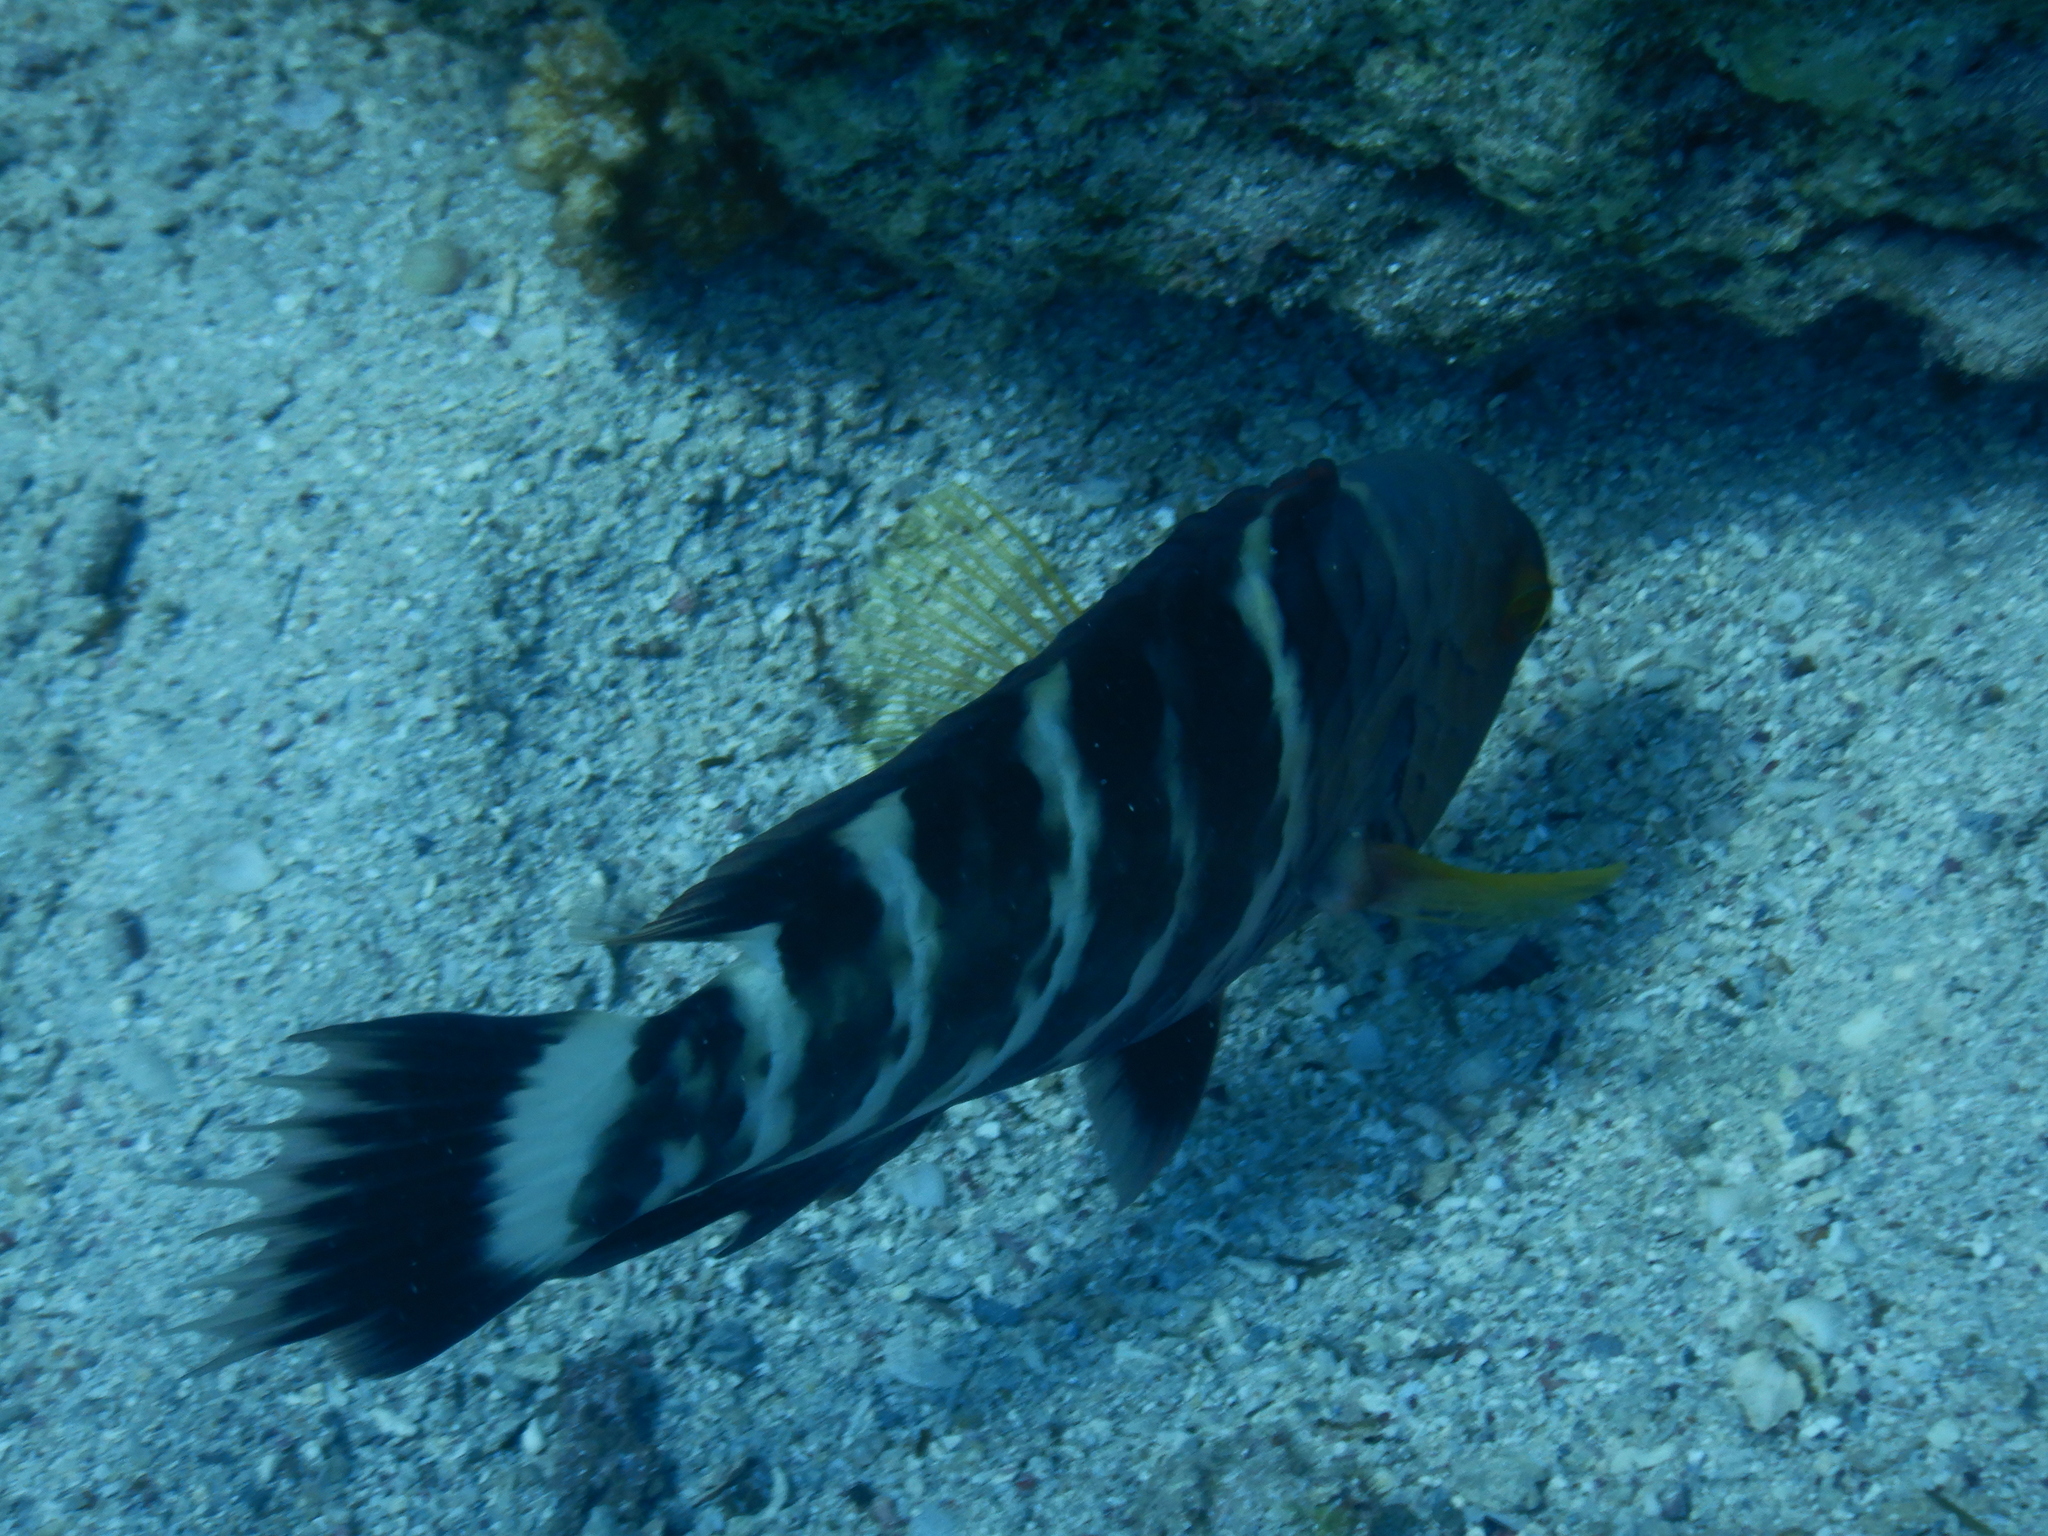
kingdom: Animalia
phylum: Chordata
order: Perciformes
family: Labridae
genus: Cheilinus
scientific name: Cheilinus lunulatus
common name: Broomtail wrasse
